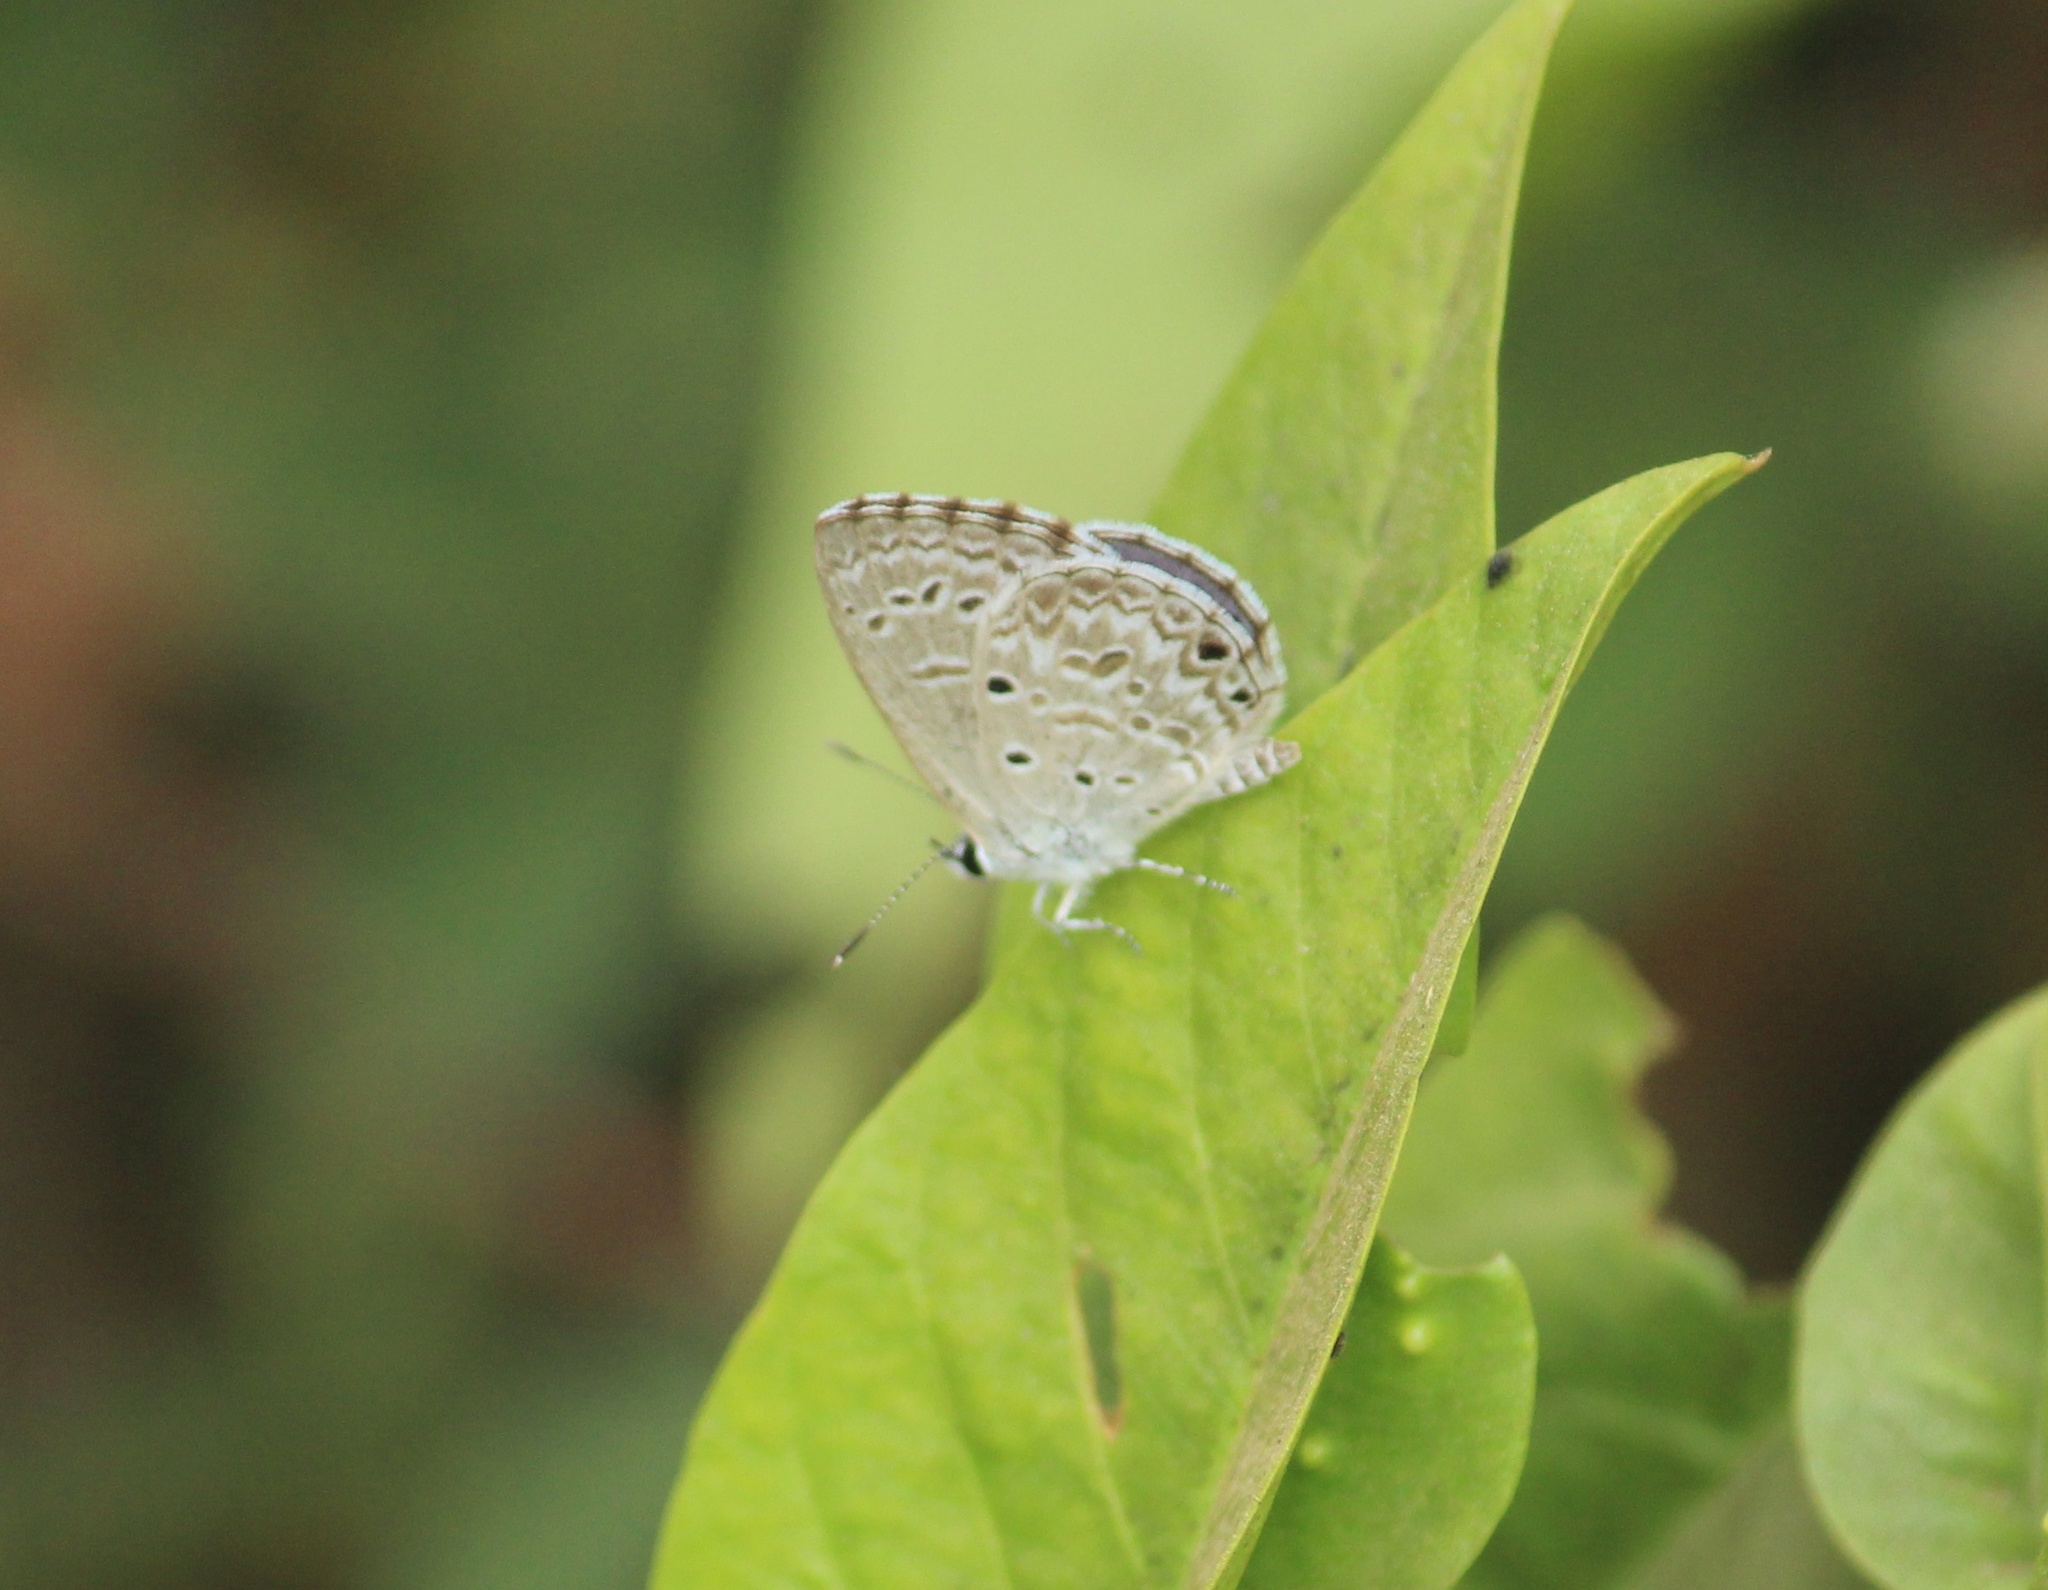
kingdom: Animalia
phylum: Arthropoda
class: Insecta
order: Lepidoptera
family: Lycaenidae
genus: Chilades
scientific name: Chilades laius
